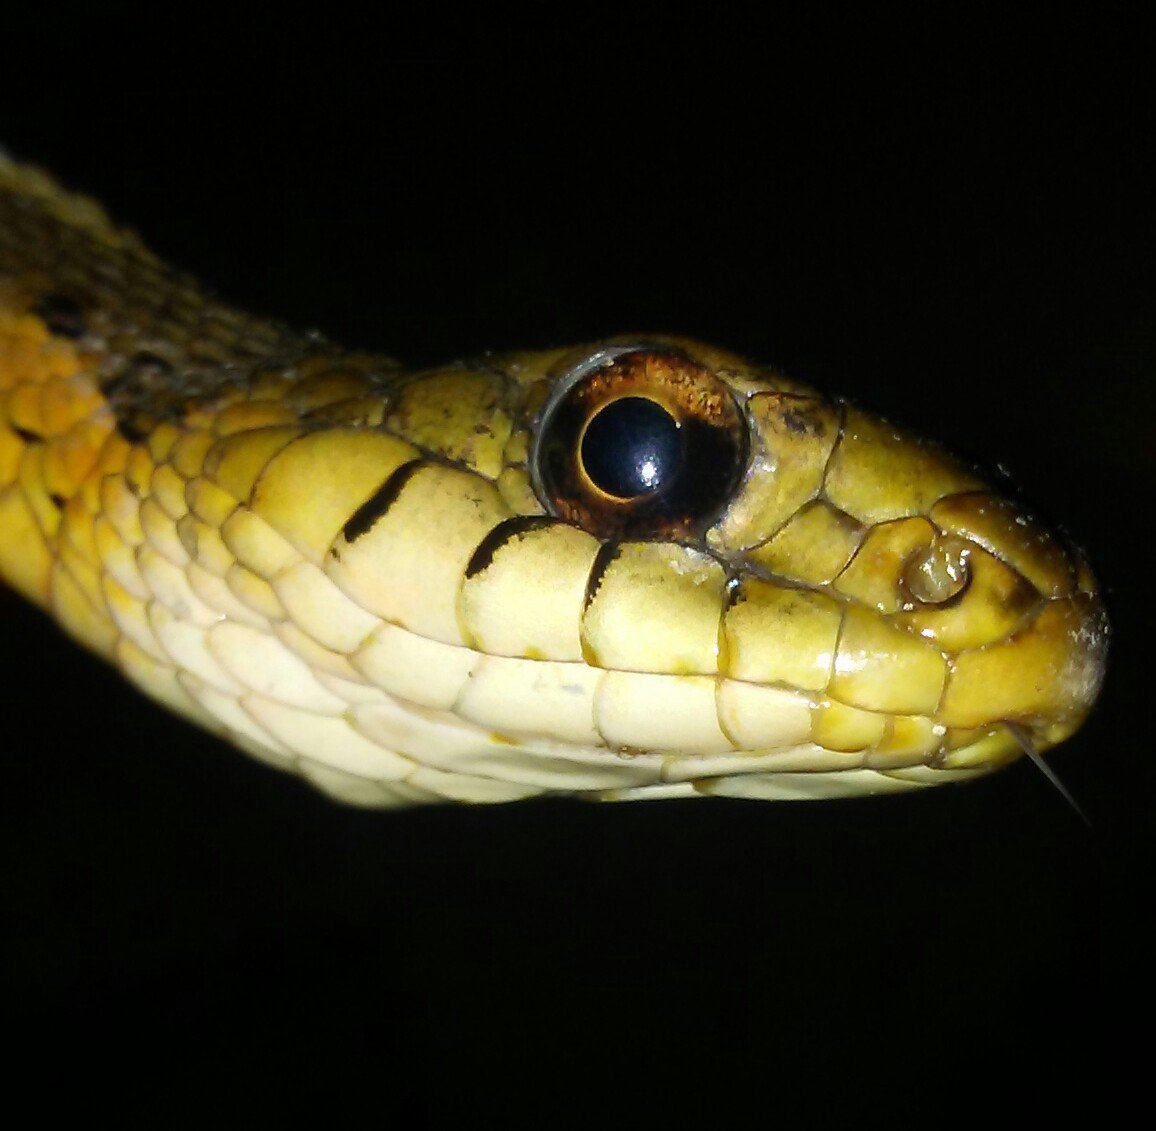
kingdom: Animalia
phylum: Chordata
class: Squamata
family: Colubridae
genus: Thamnophis
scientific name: Thamnophis sirtalis
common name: Common garter snake
